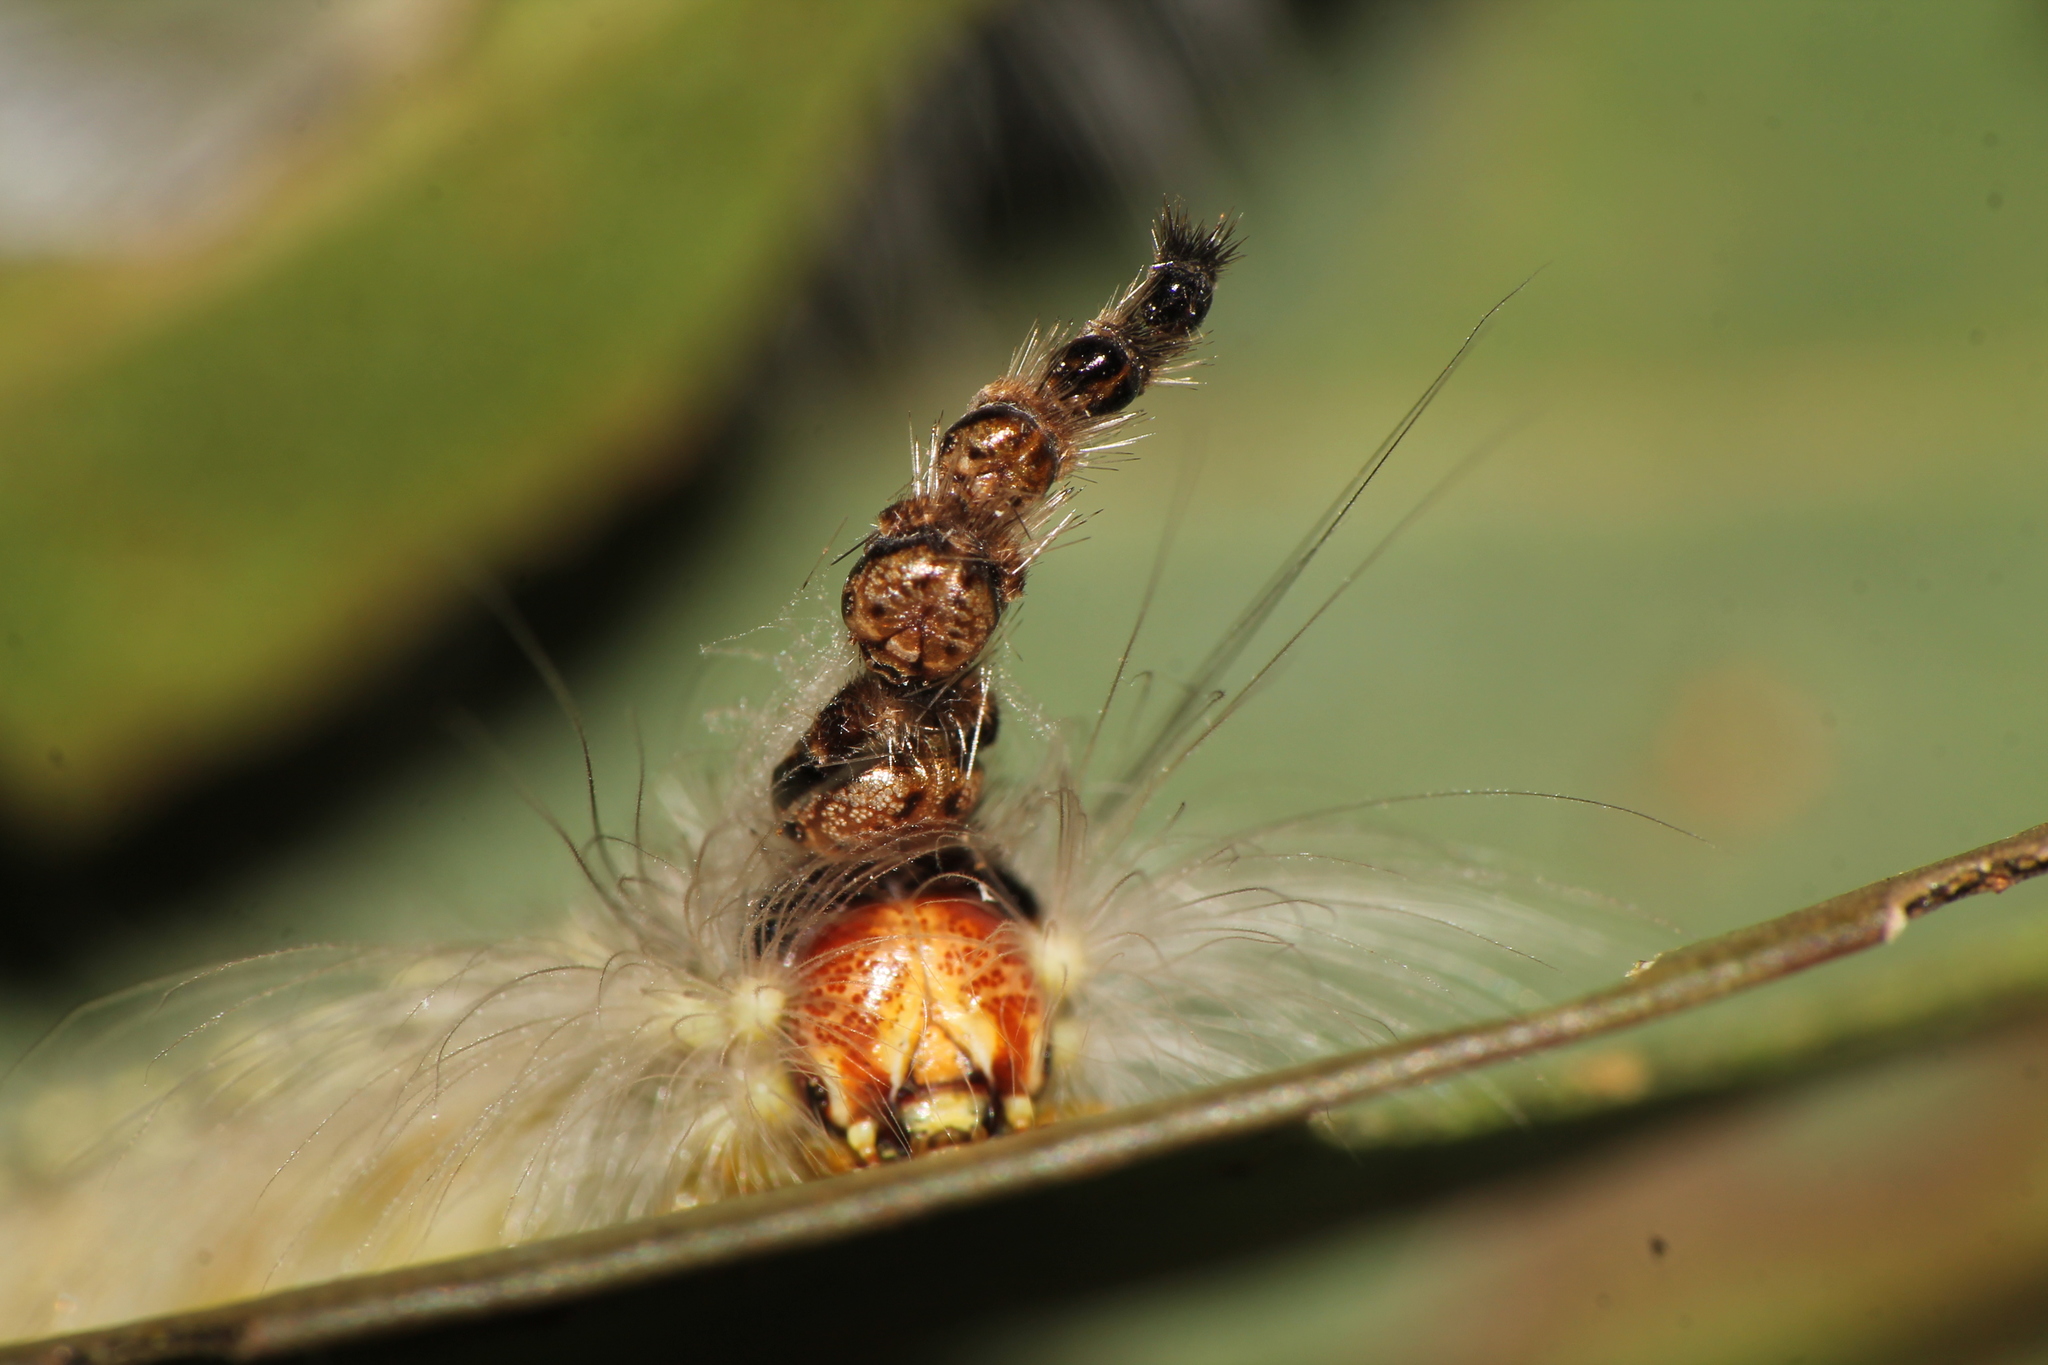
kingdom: Animalia
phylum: Arthropoda
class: Insecta
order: Lepidoptera
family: Nolidae
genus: Uraba
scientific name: Uraba lugens
